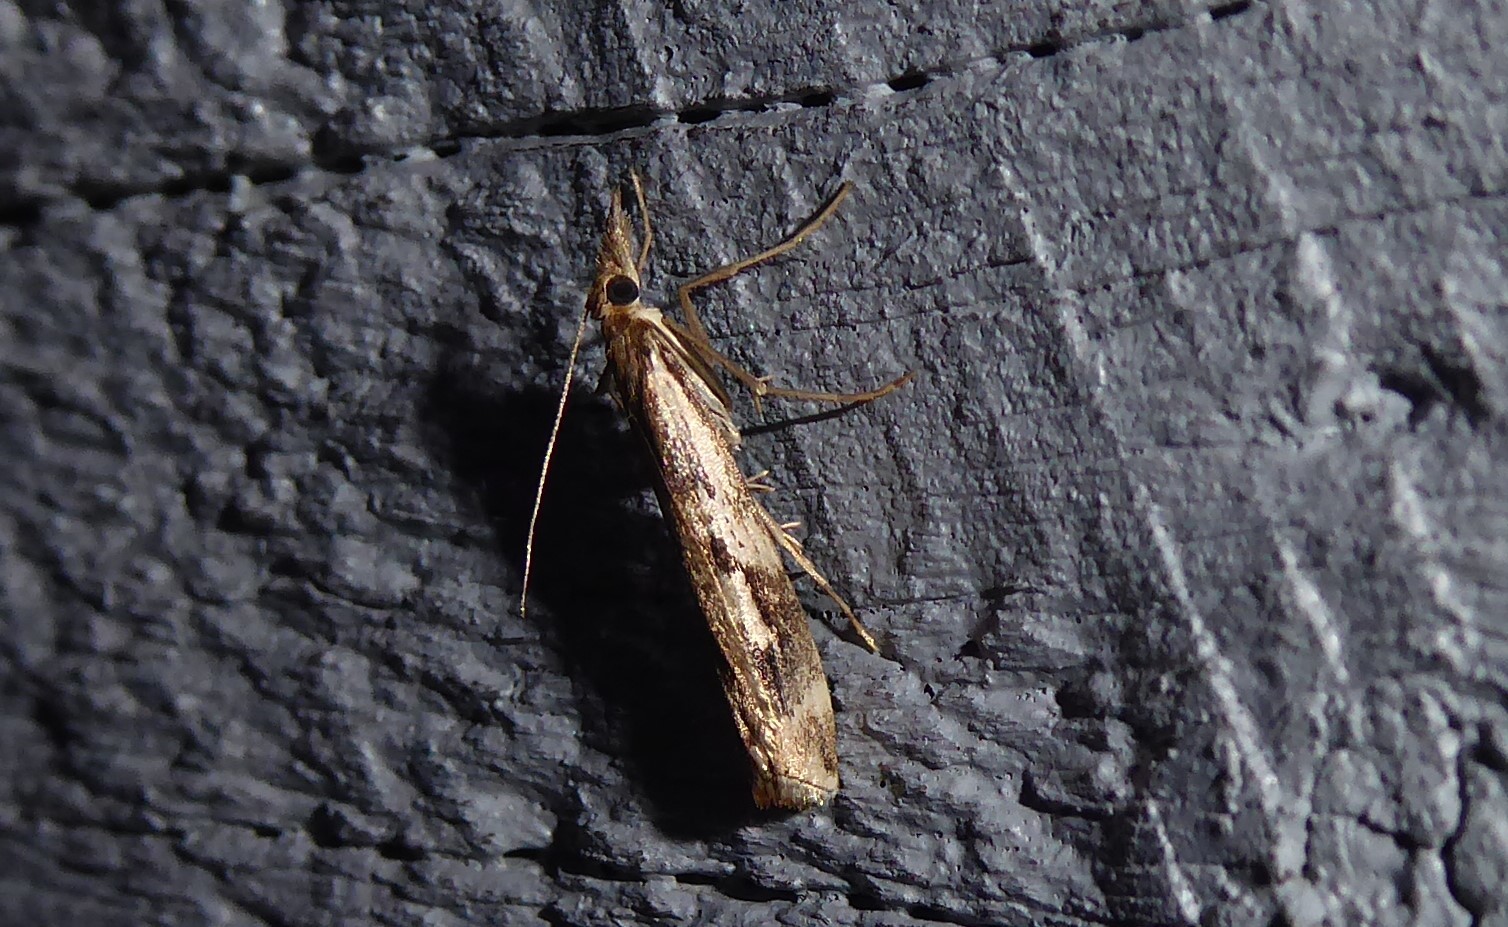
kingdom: Animalia
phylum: Arthropoda
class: Insecta
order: Lepidoptera
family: Crambidae
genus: Orocrambus
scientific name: Orocrambus vulgaris
